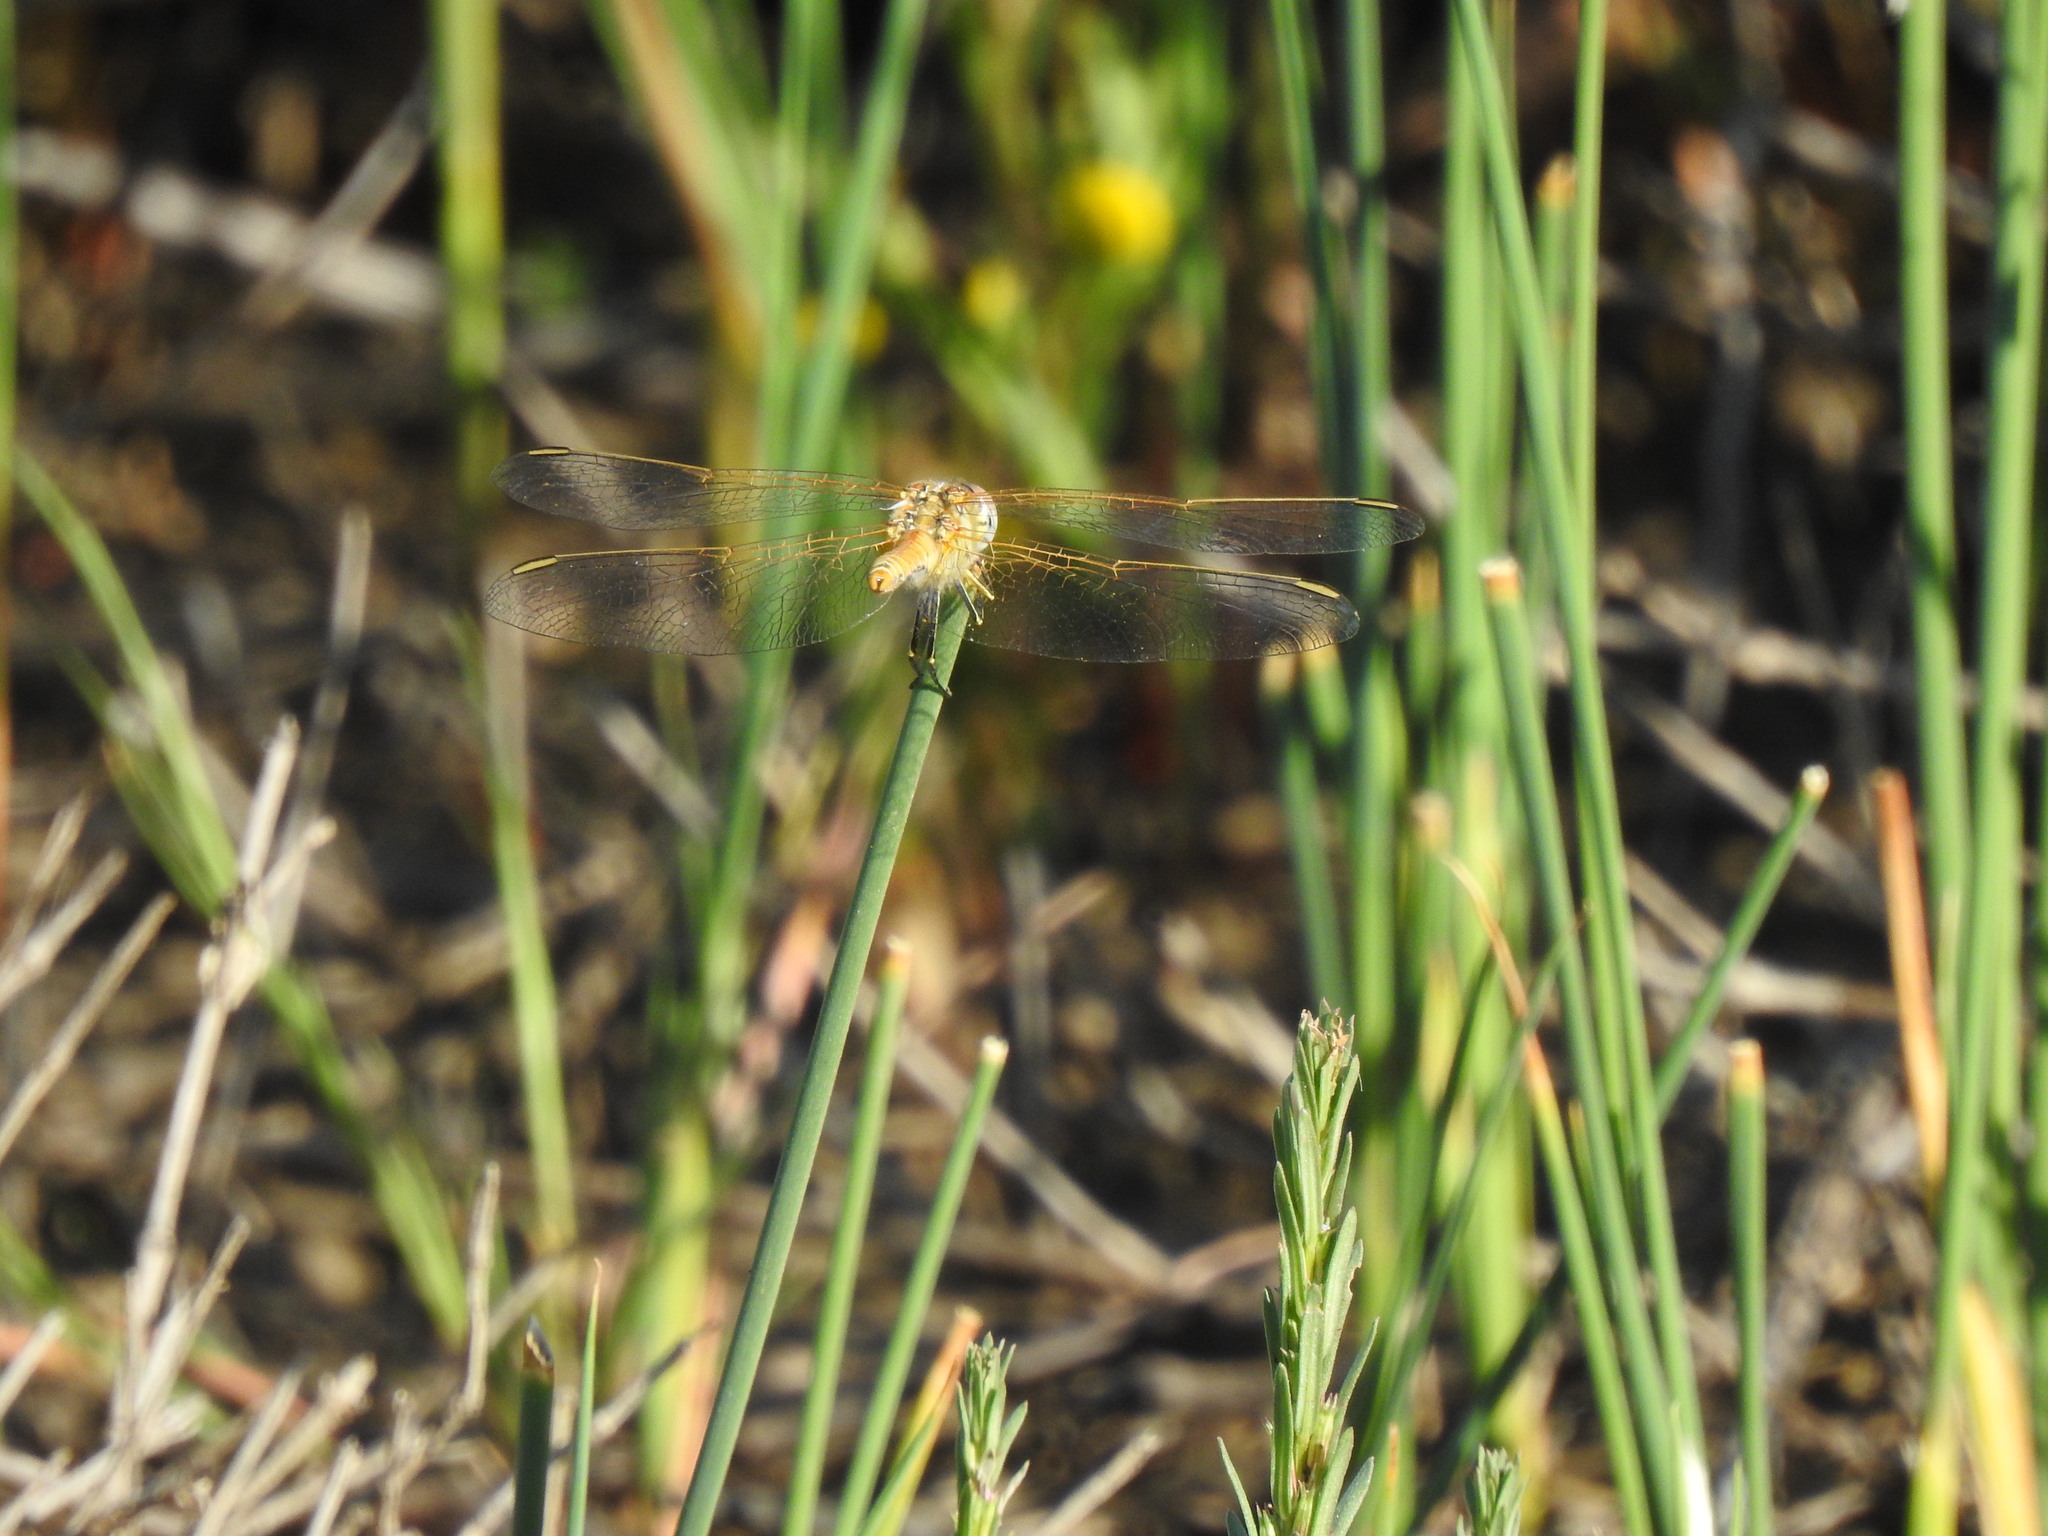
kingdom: Animalia
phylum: Arthropoda
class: Insecta
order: Odonata
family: Libellulidae
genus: Sympetrum
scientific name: Sympetrum fonscolombii
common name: Red-veined darter
